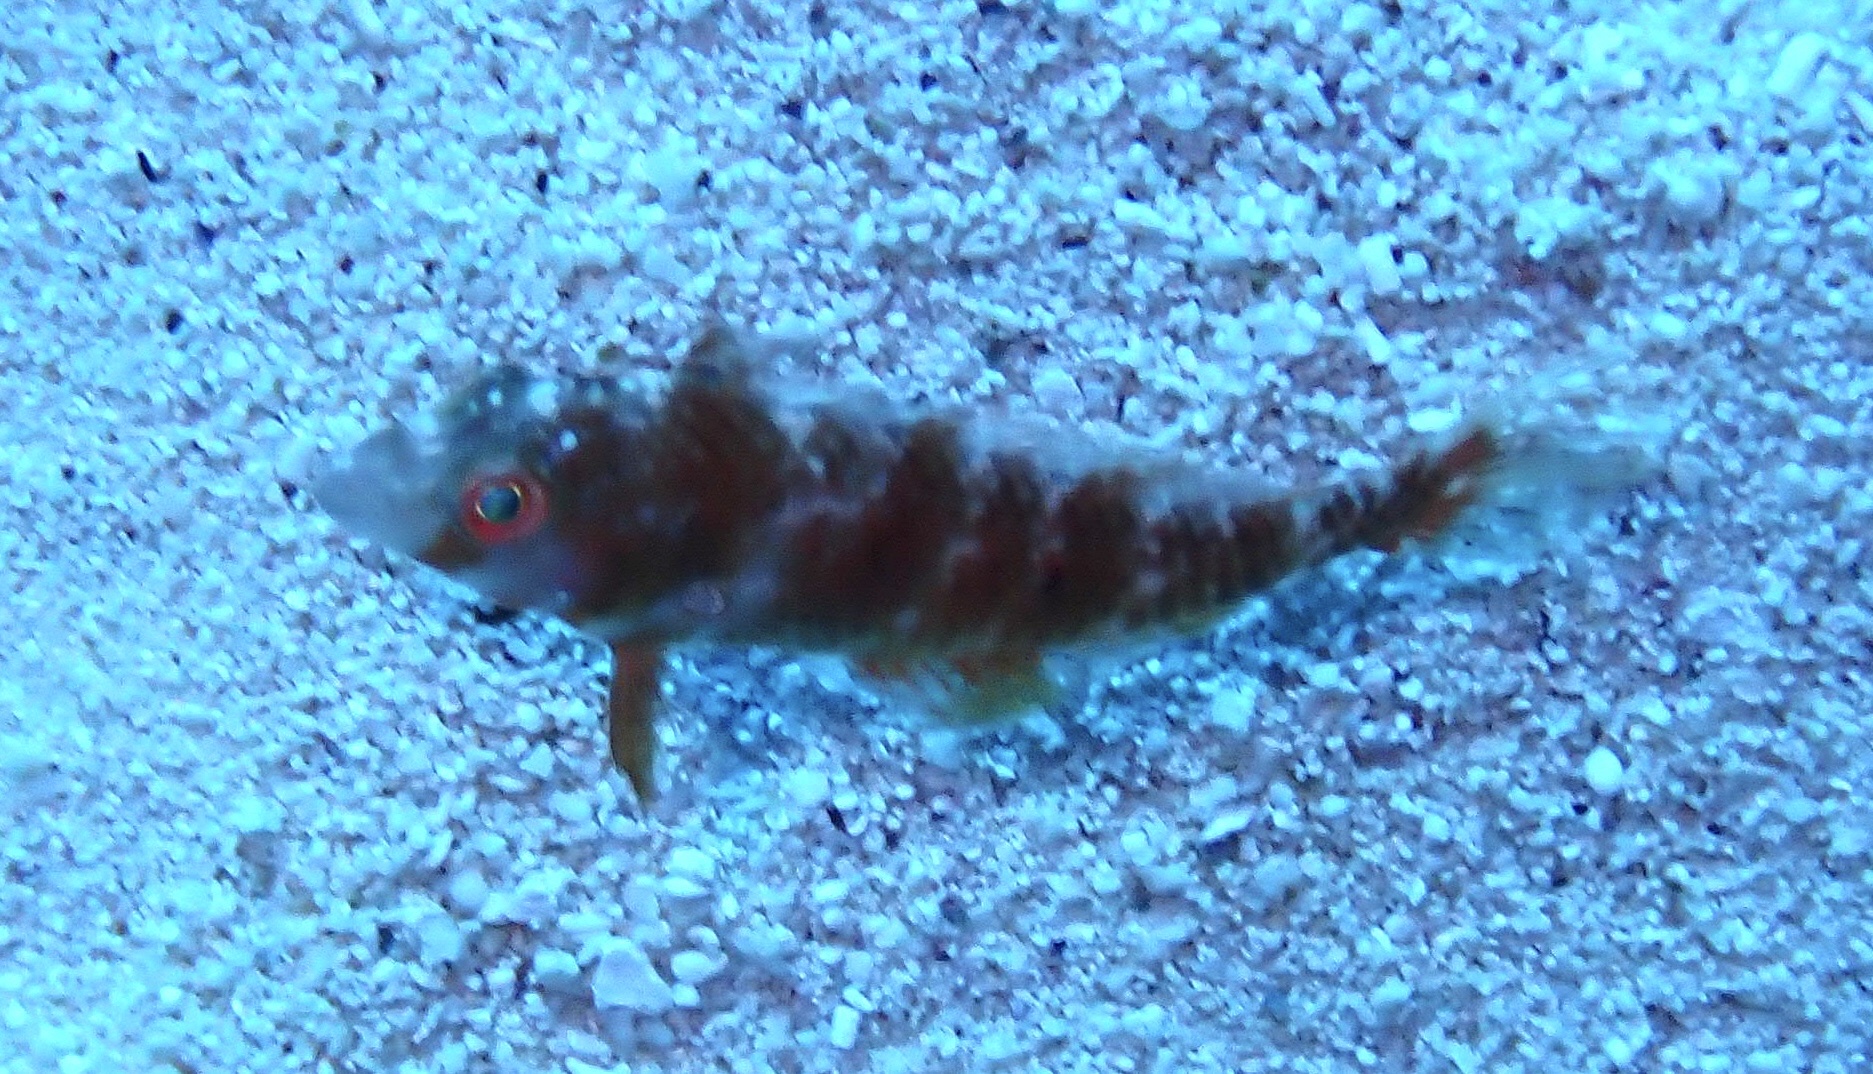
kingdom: Animalia
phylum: Chordata
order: Perciformes
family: Labridae
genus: Xyrichtys
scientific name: Xyrichtys splendens
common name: Green razorfish
